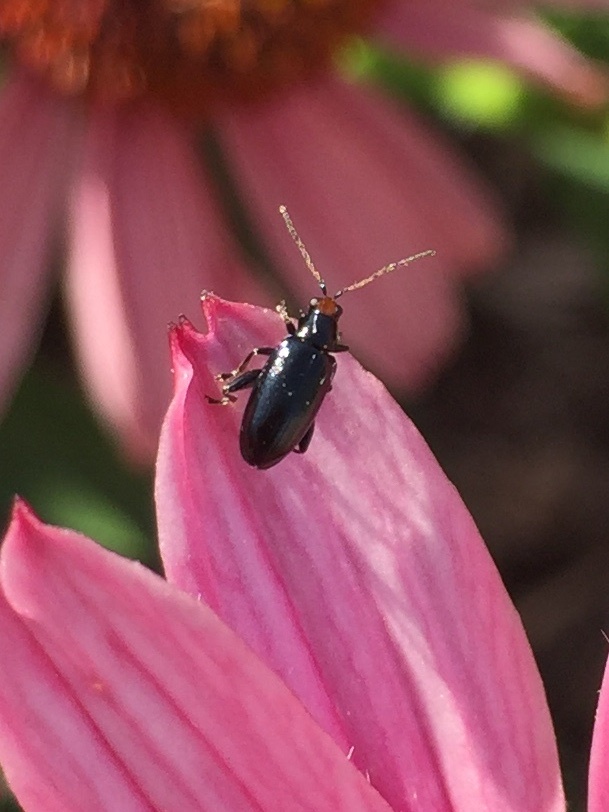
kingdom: Animalia
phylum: Arthropoda
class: Insecta
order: Coleoptera
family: Chrysomelidae
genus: Systena
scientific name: Systena frontalis
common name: Red-headed flea beetle
